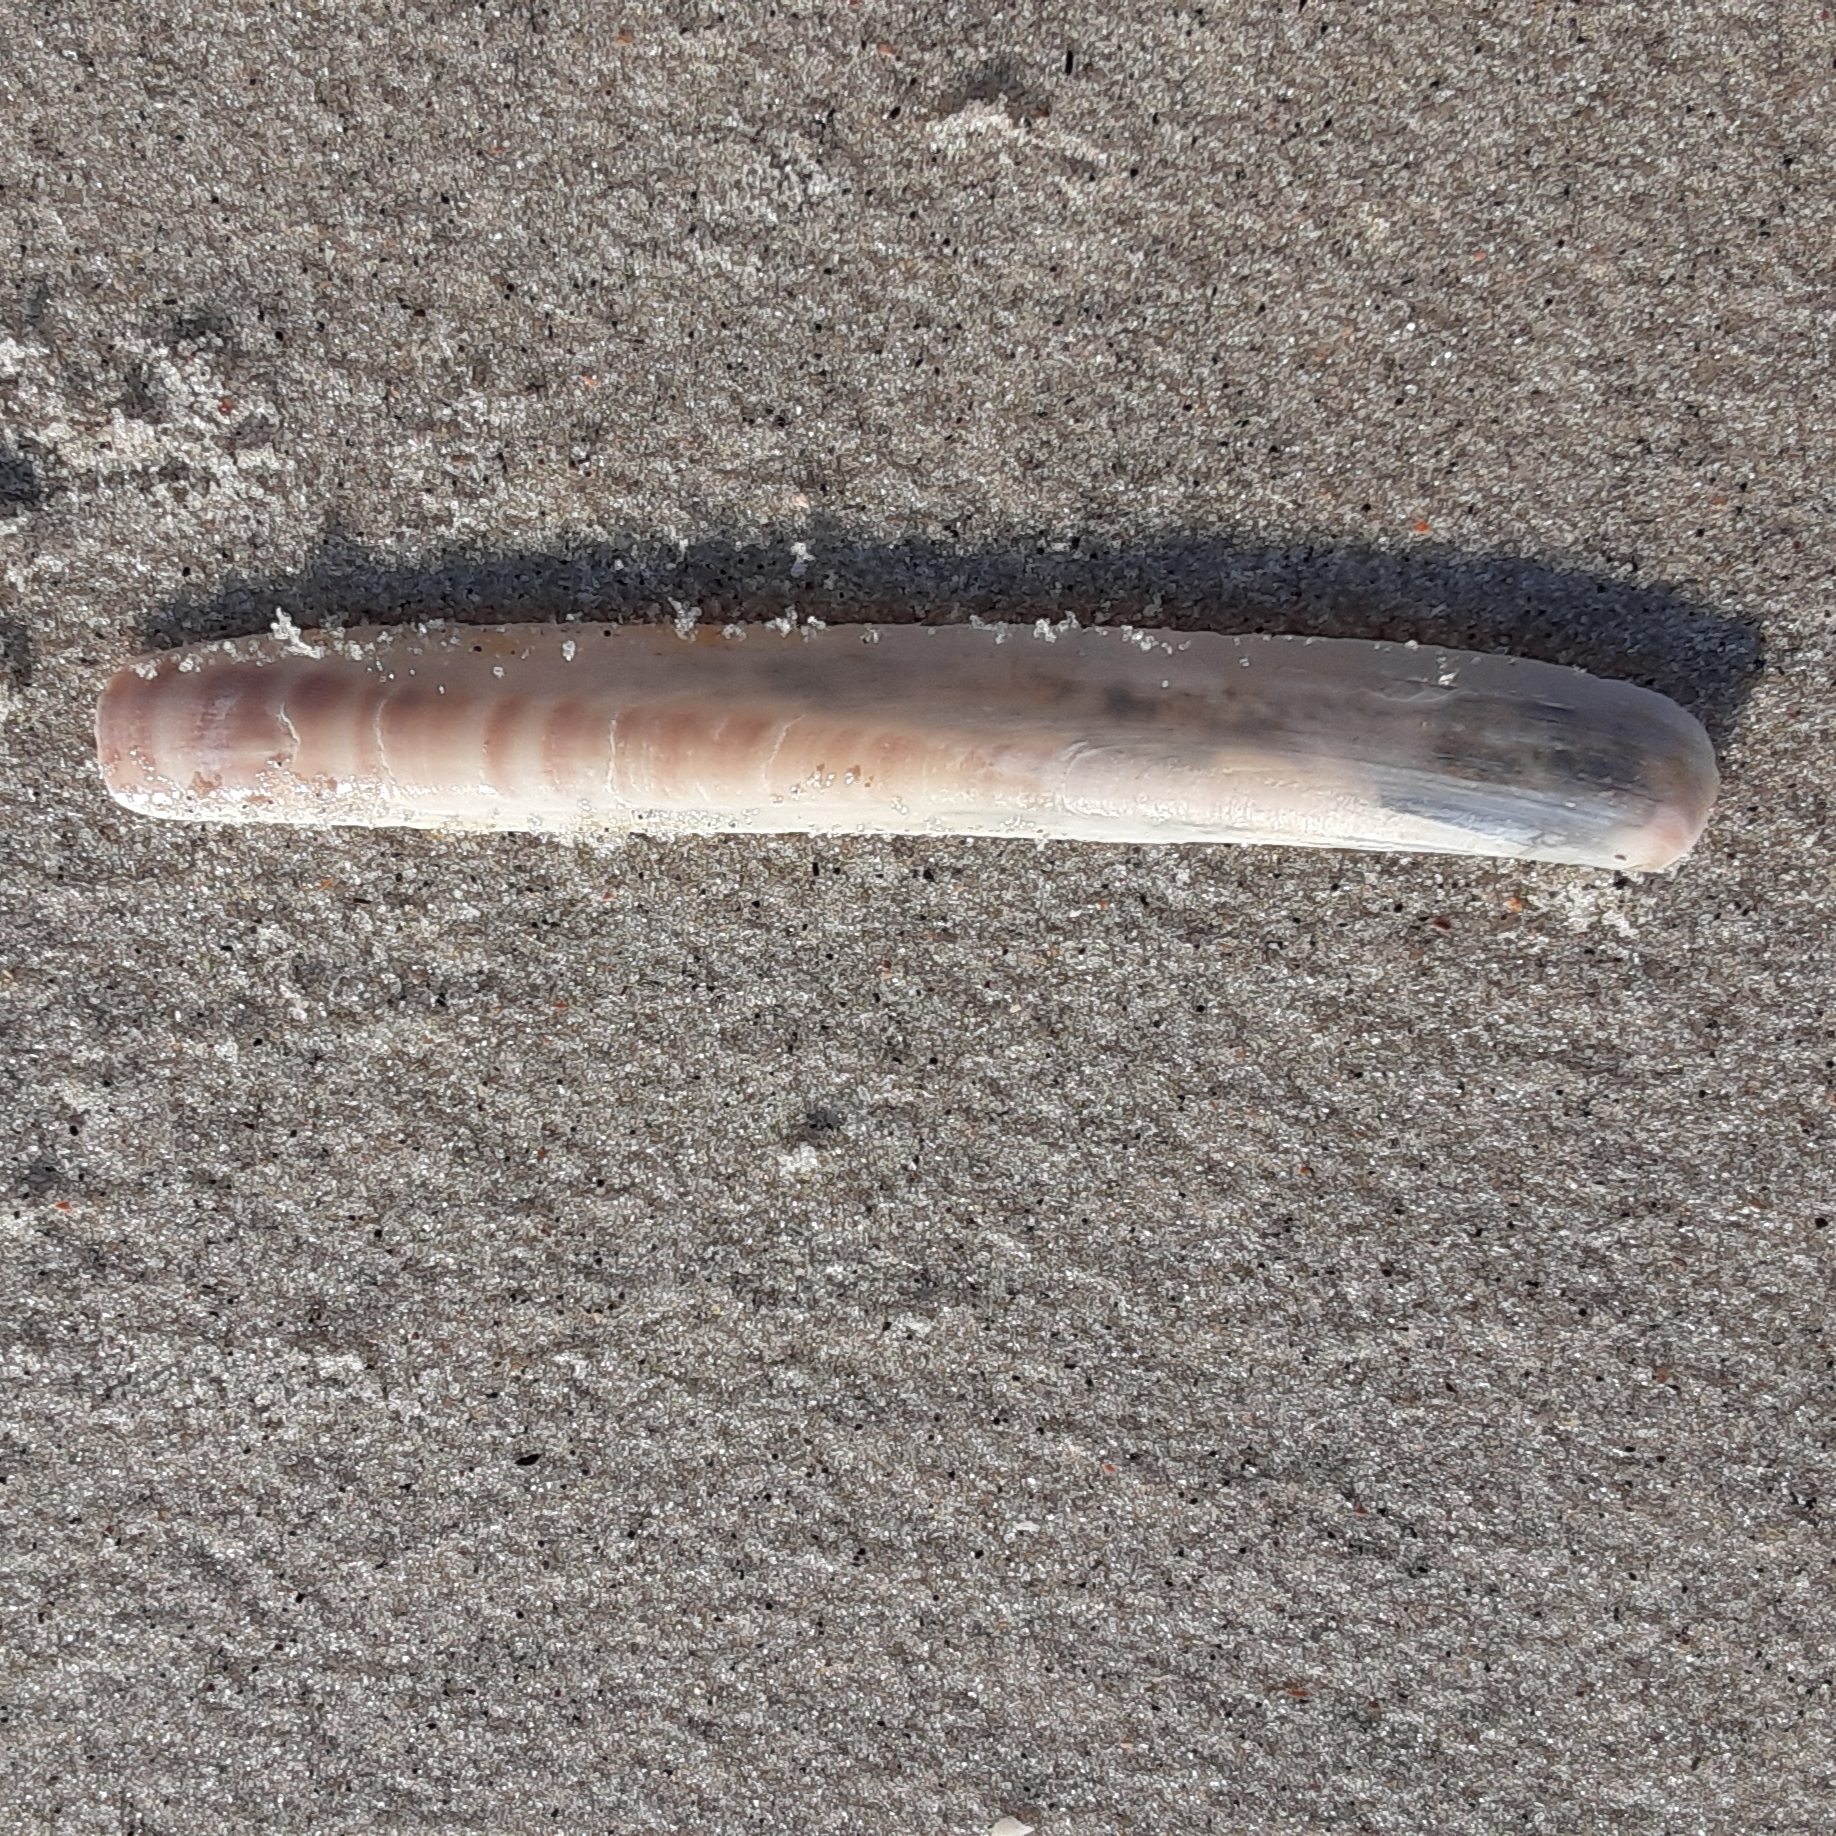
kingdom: Animalia
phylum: Mollusca
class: Bivalvia
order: Adapedonta
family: Pharidae
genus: Ensis
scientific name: Ensis megistus
